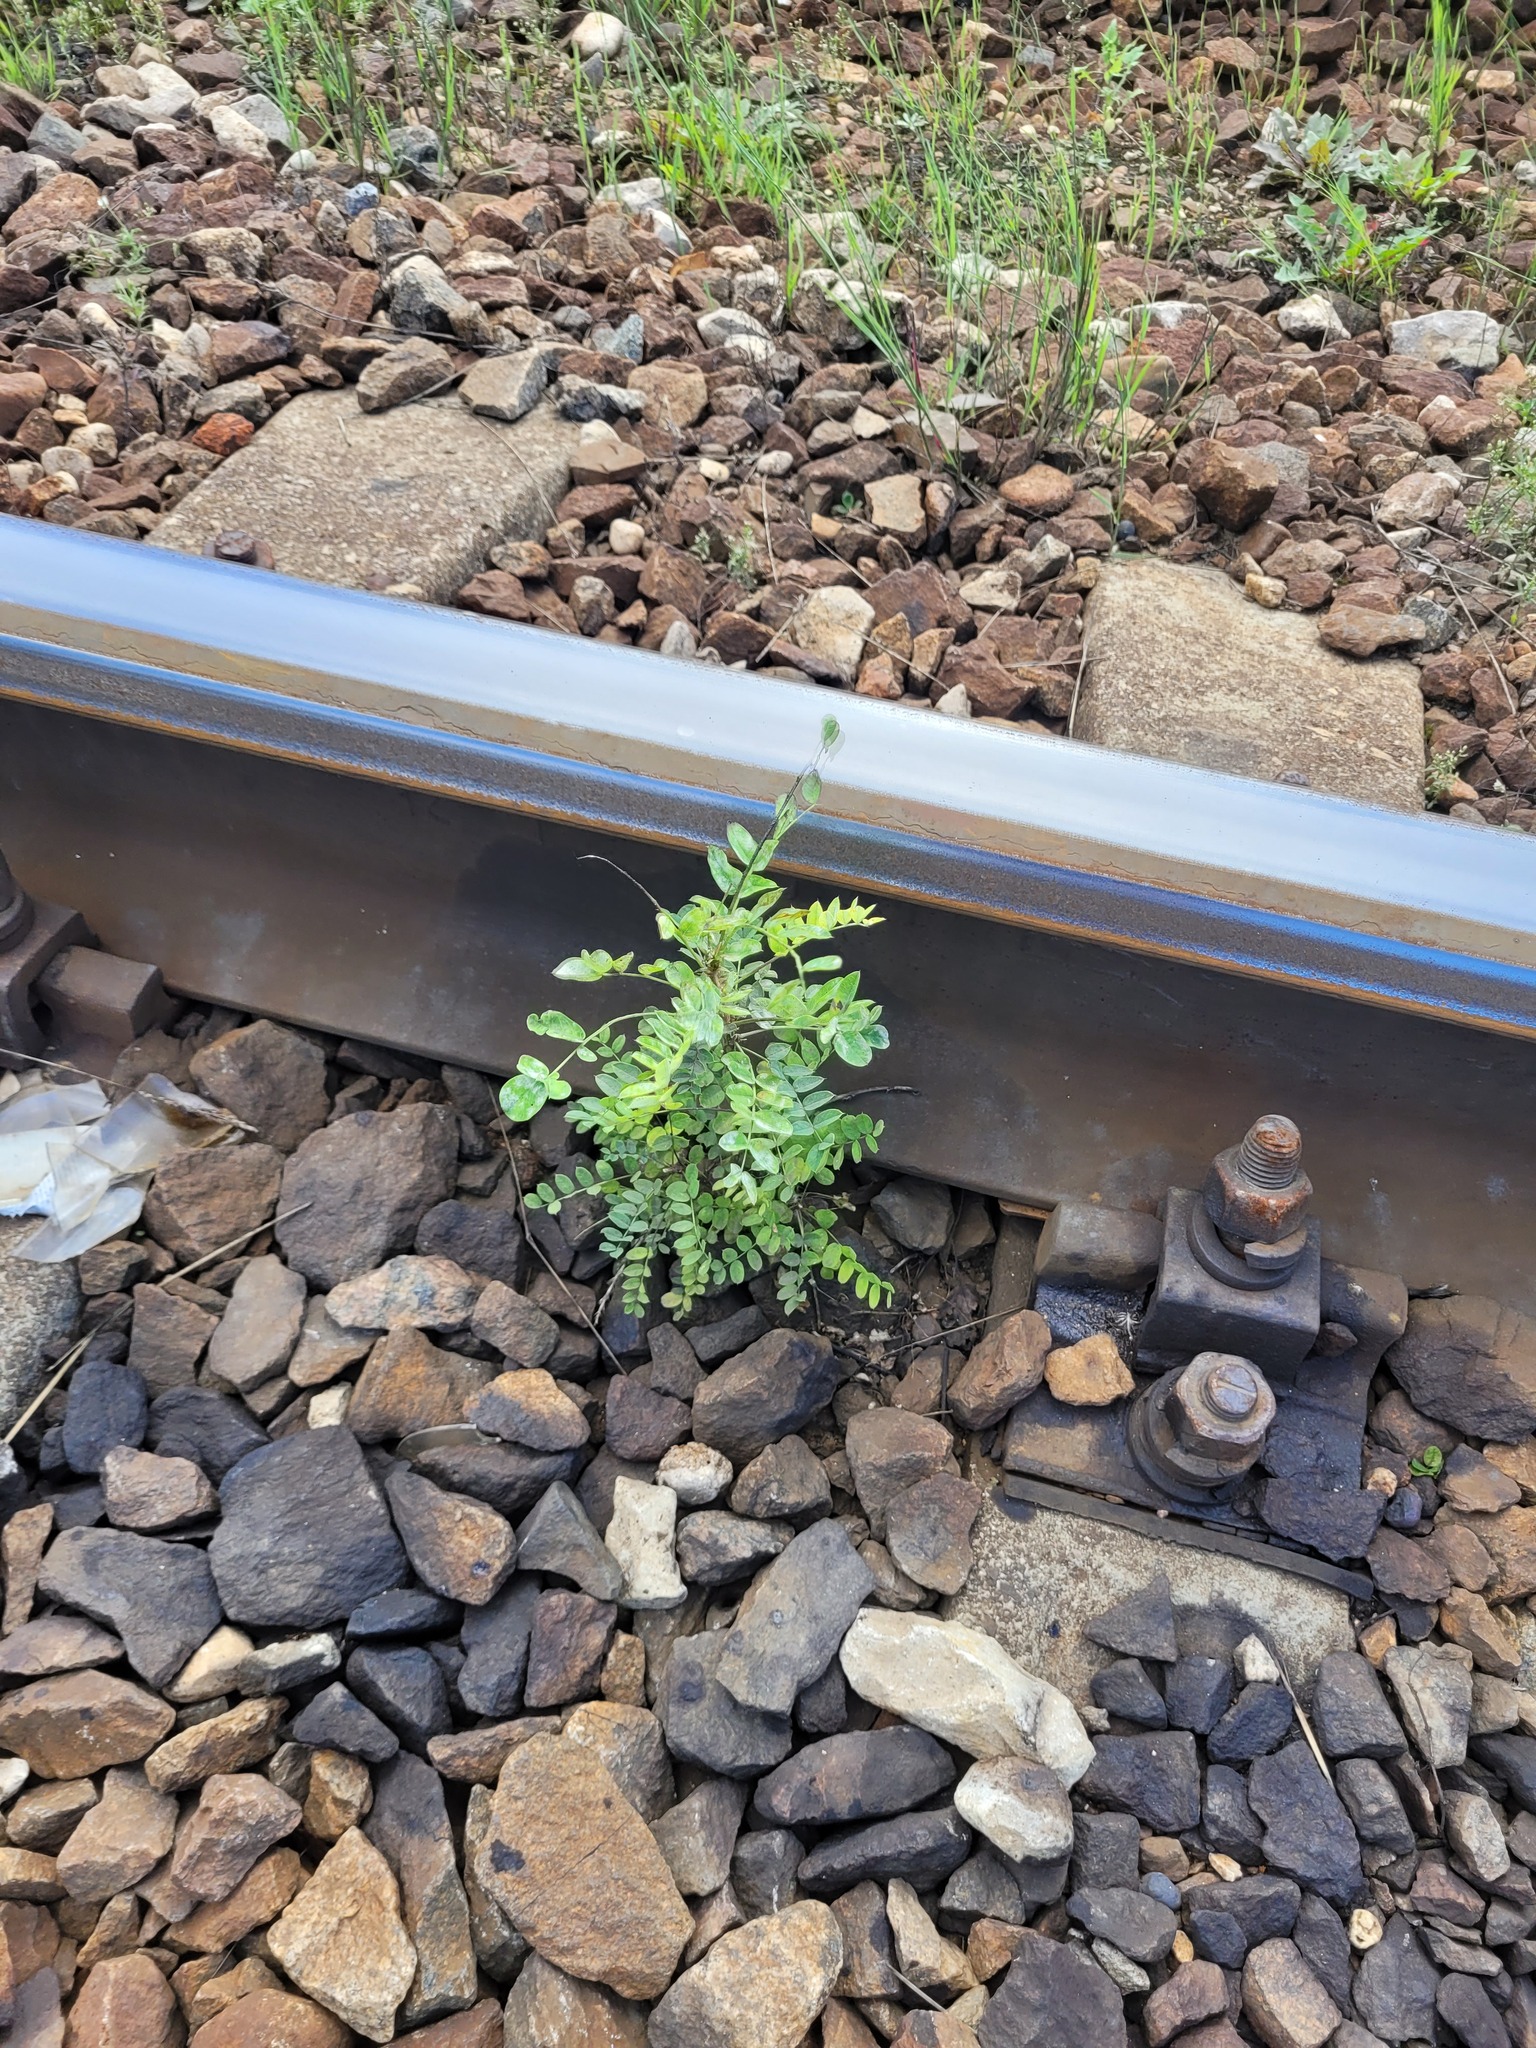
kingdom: Plantae
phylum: Tracheophyta
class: Magnoliopsida
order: Fabales
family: Fabaceae
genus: Caragana
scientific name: Caragana arborescens
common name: Siberian peashrub
